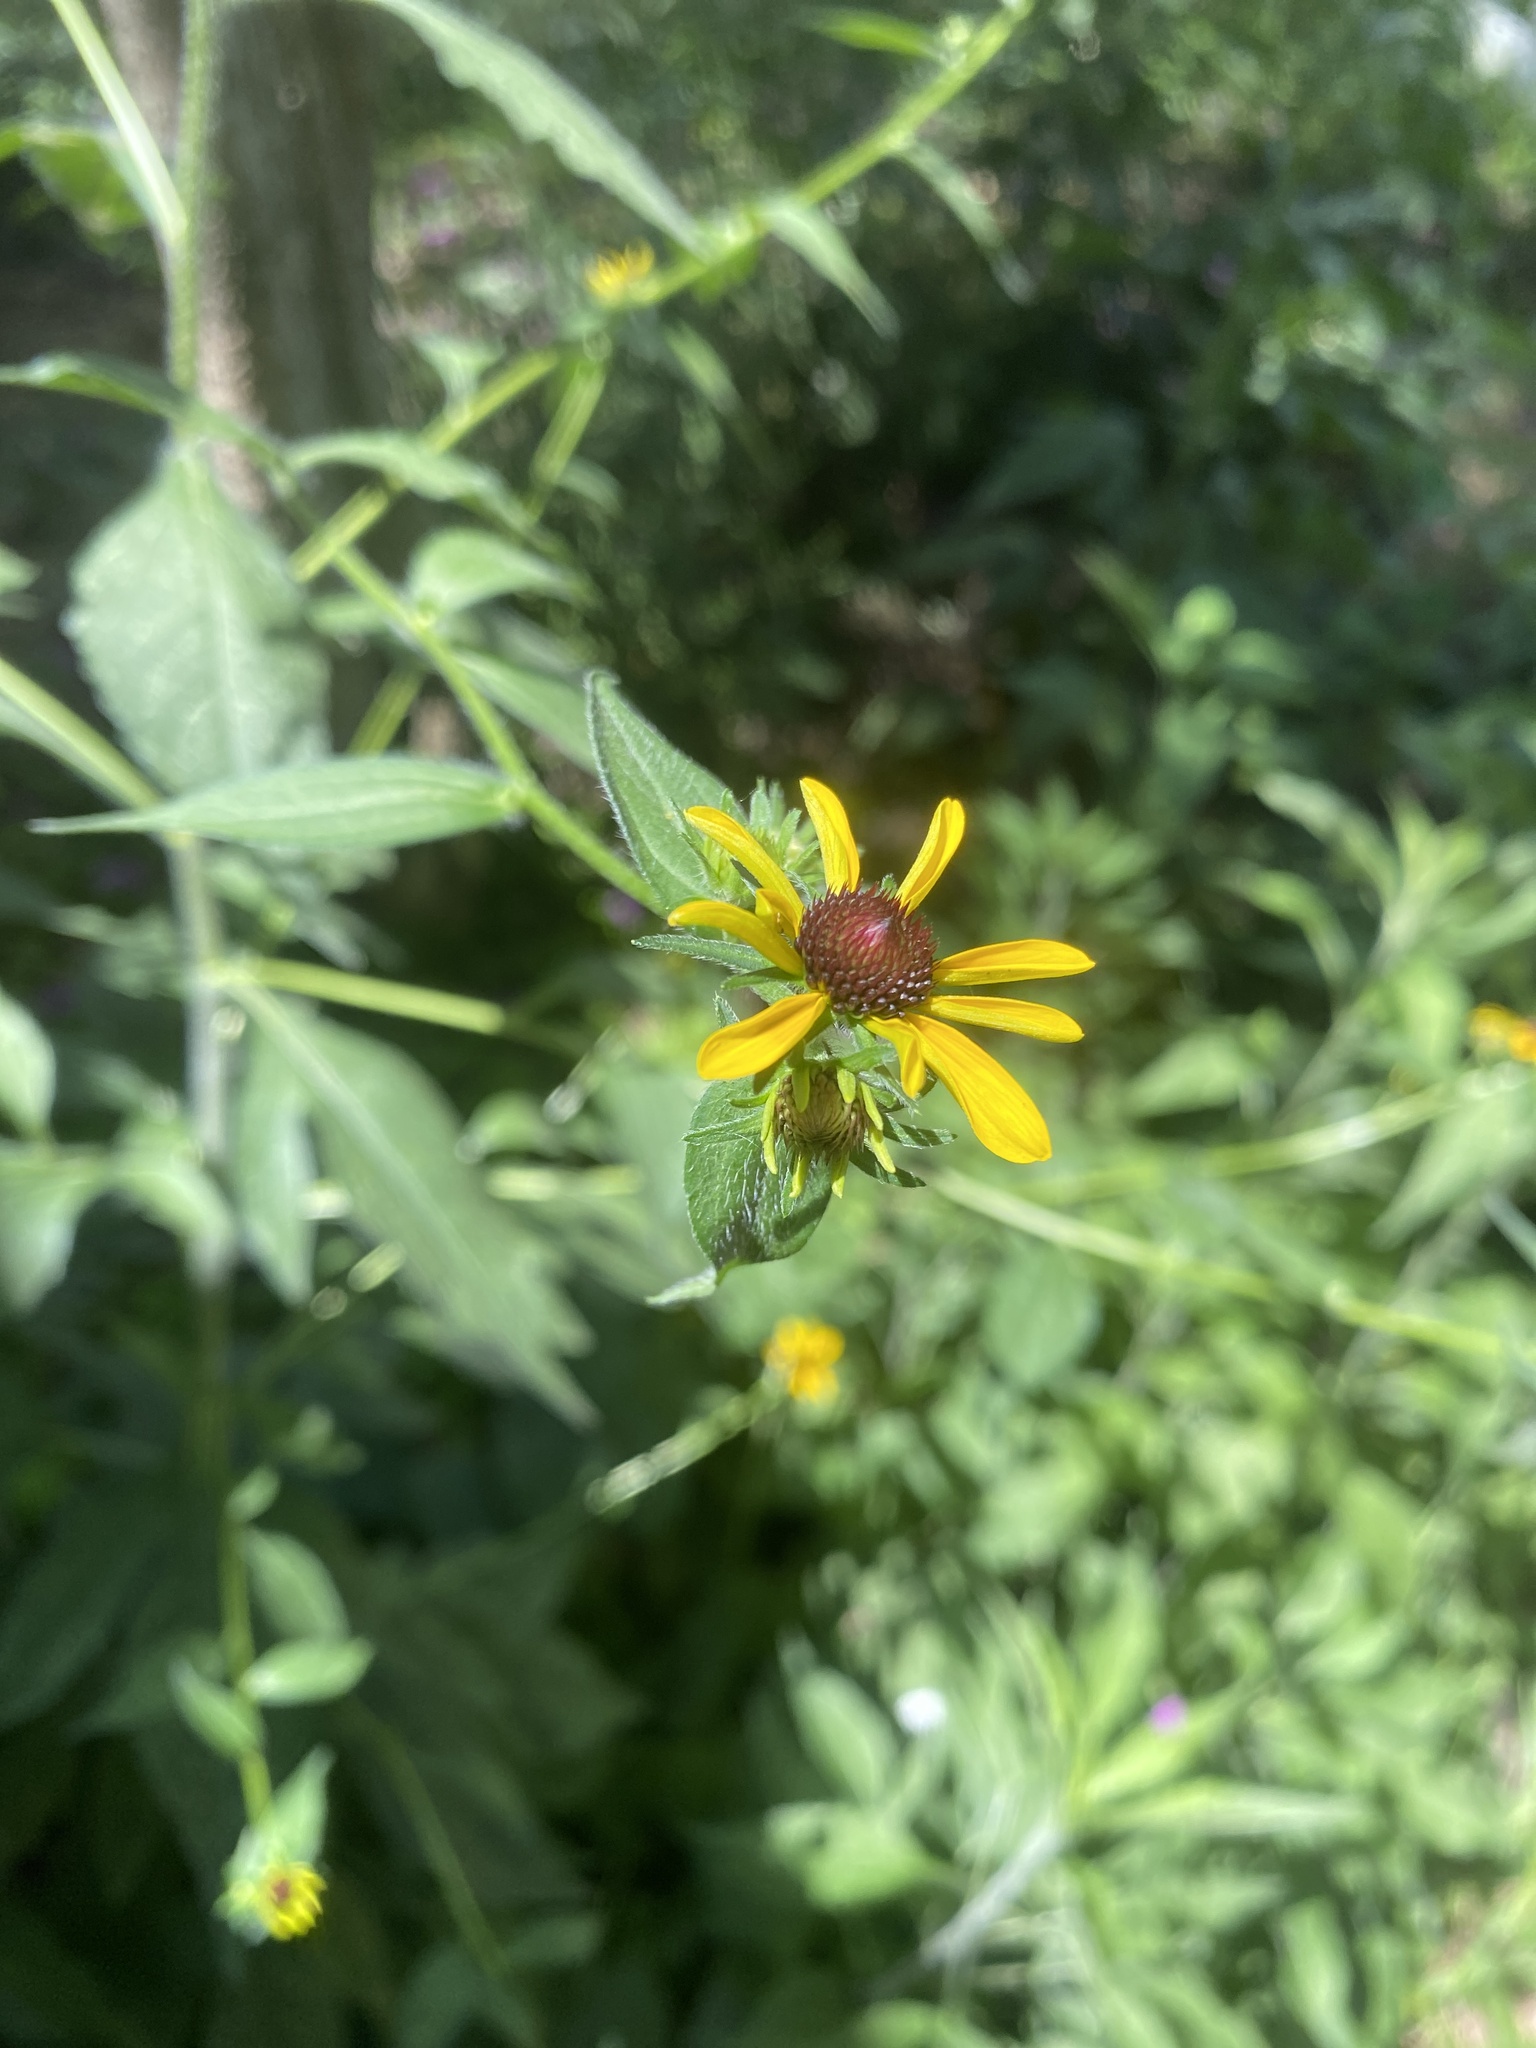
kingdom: Plantae
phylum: Tracheophyta
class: Magnoliopsida
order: Asterales
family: Asteraceae
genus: Rudbeckia
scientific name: Rudbeckia hirta
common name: Black-eyed-susan
